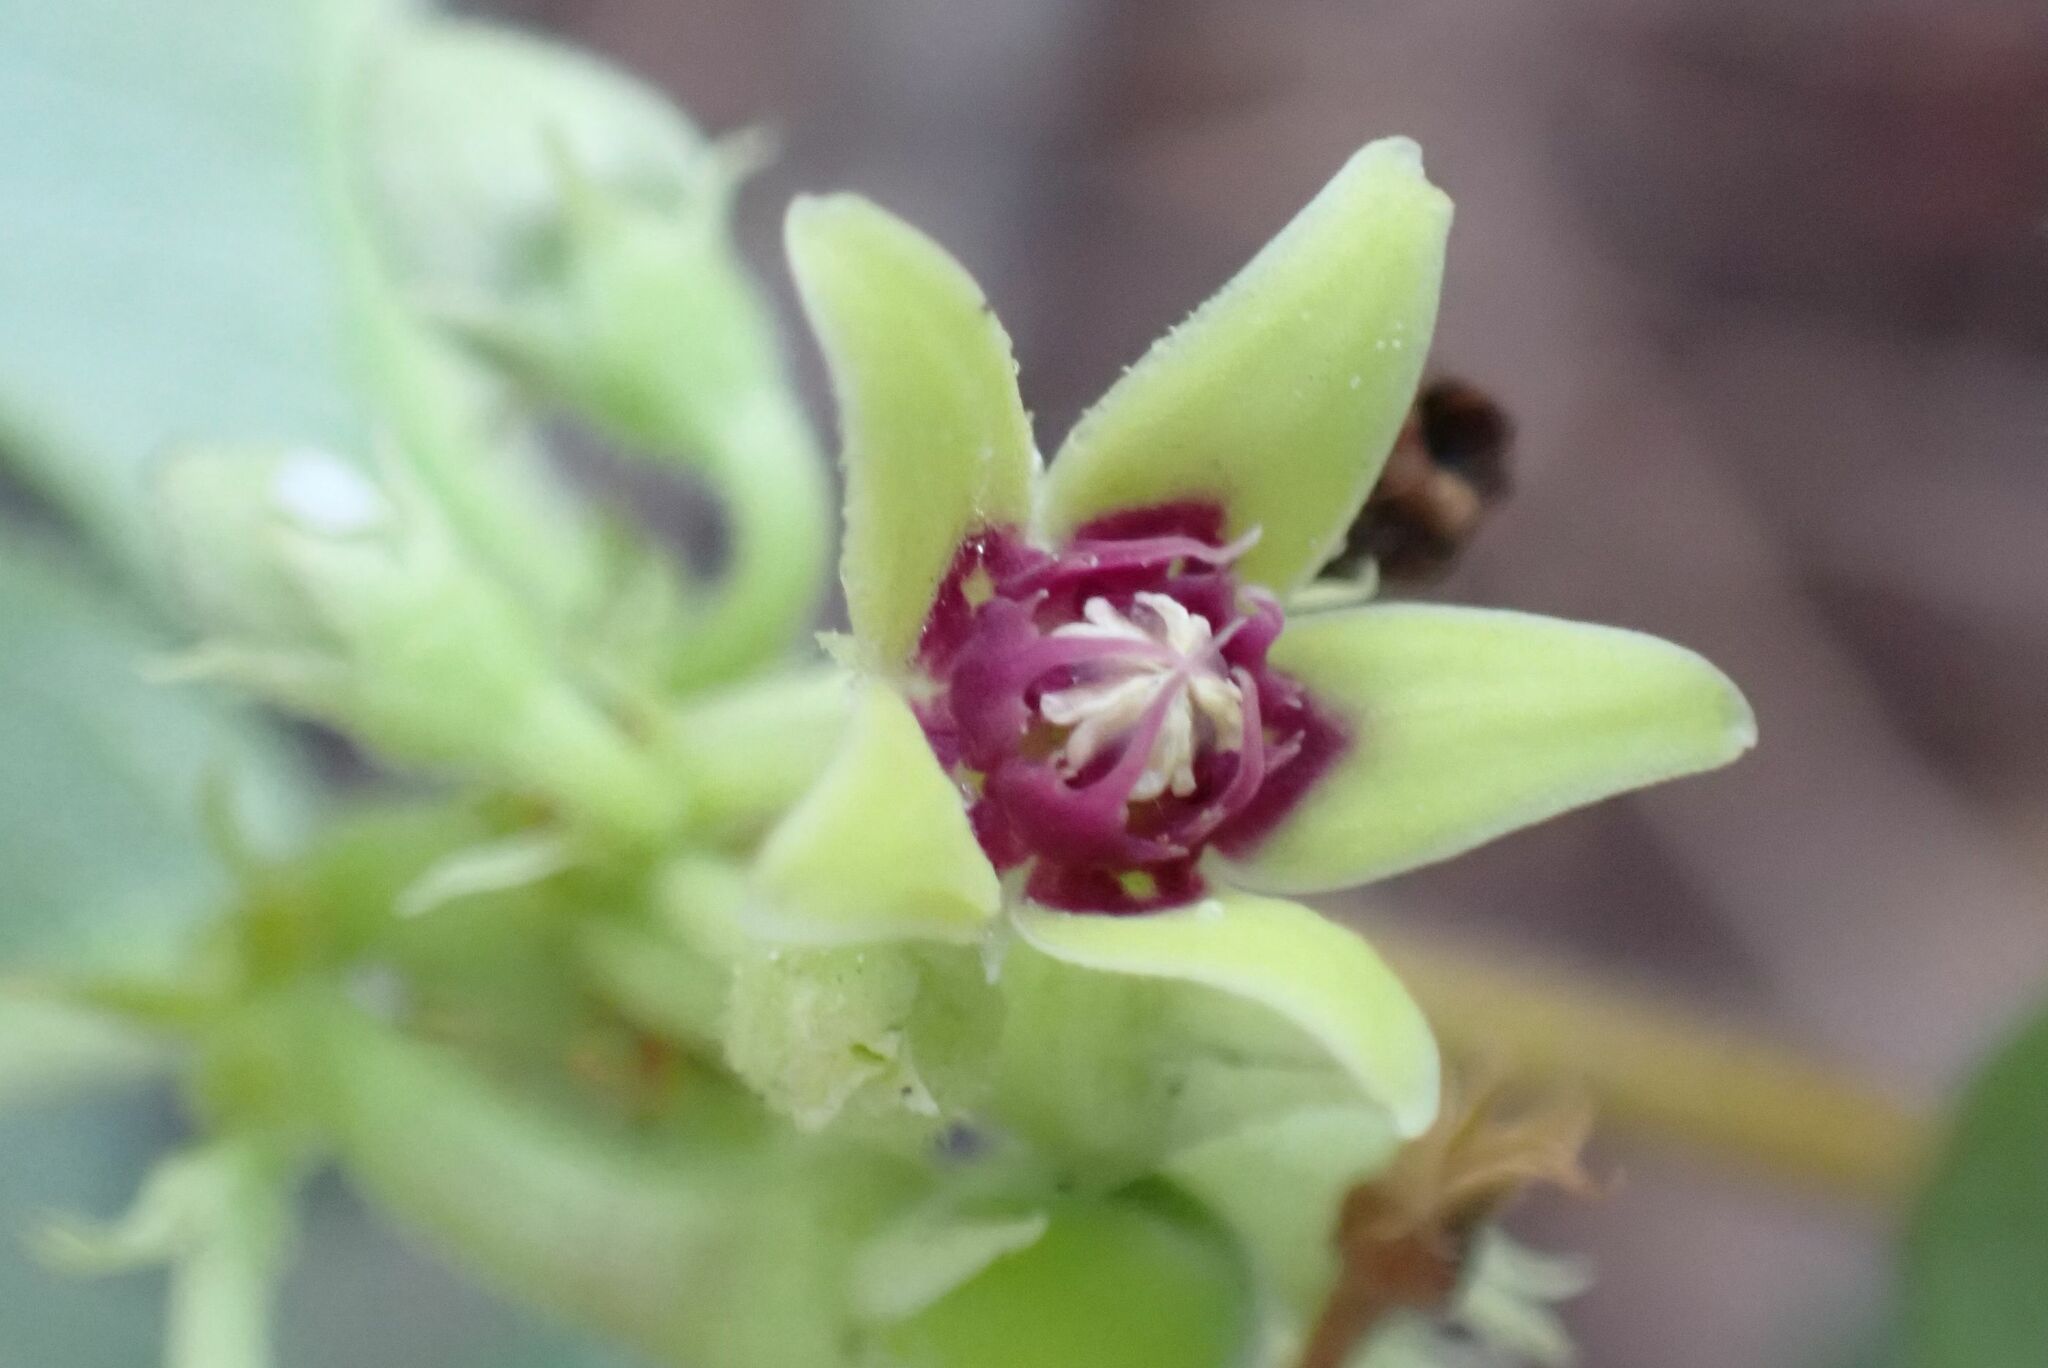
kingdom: Plantae
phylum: Tracheophyta
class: Magnoliopsida
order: Gentianales
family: Apocynaceae
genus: Raphionacme
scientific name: Raphionacme procumbens
